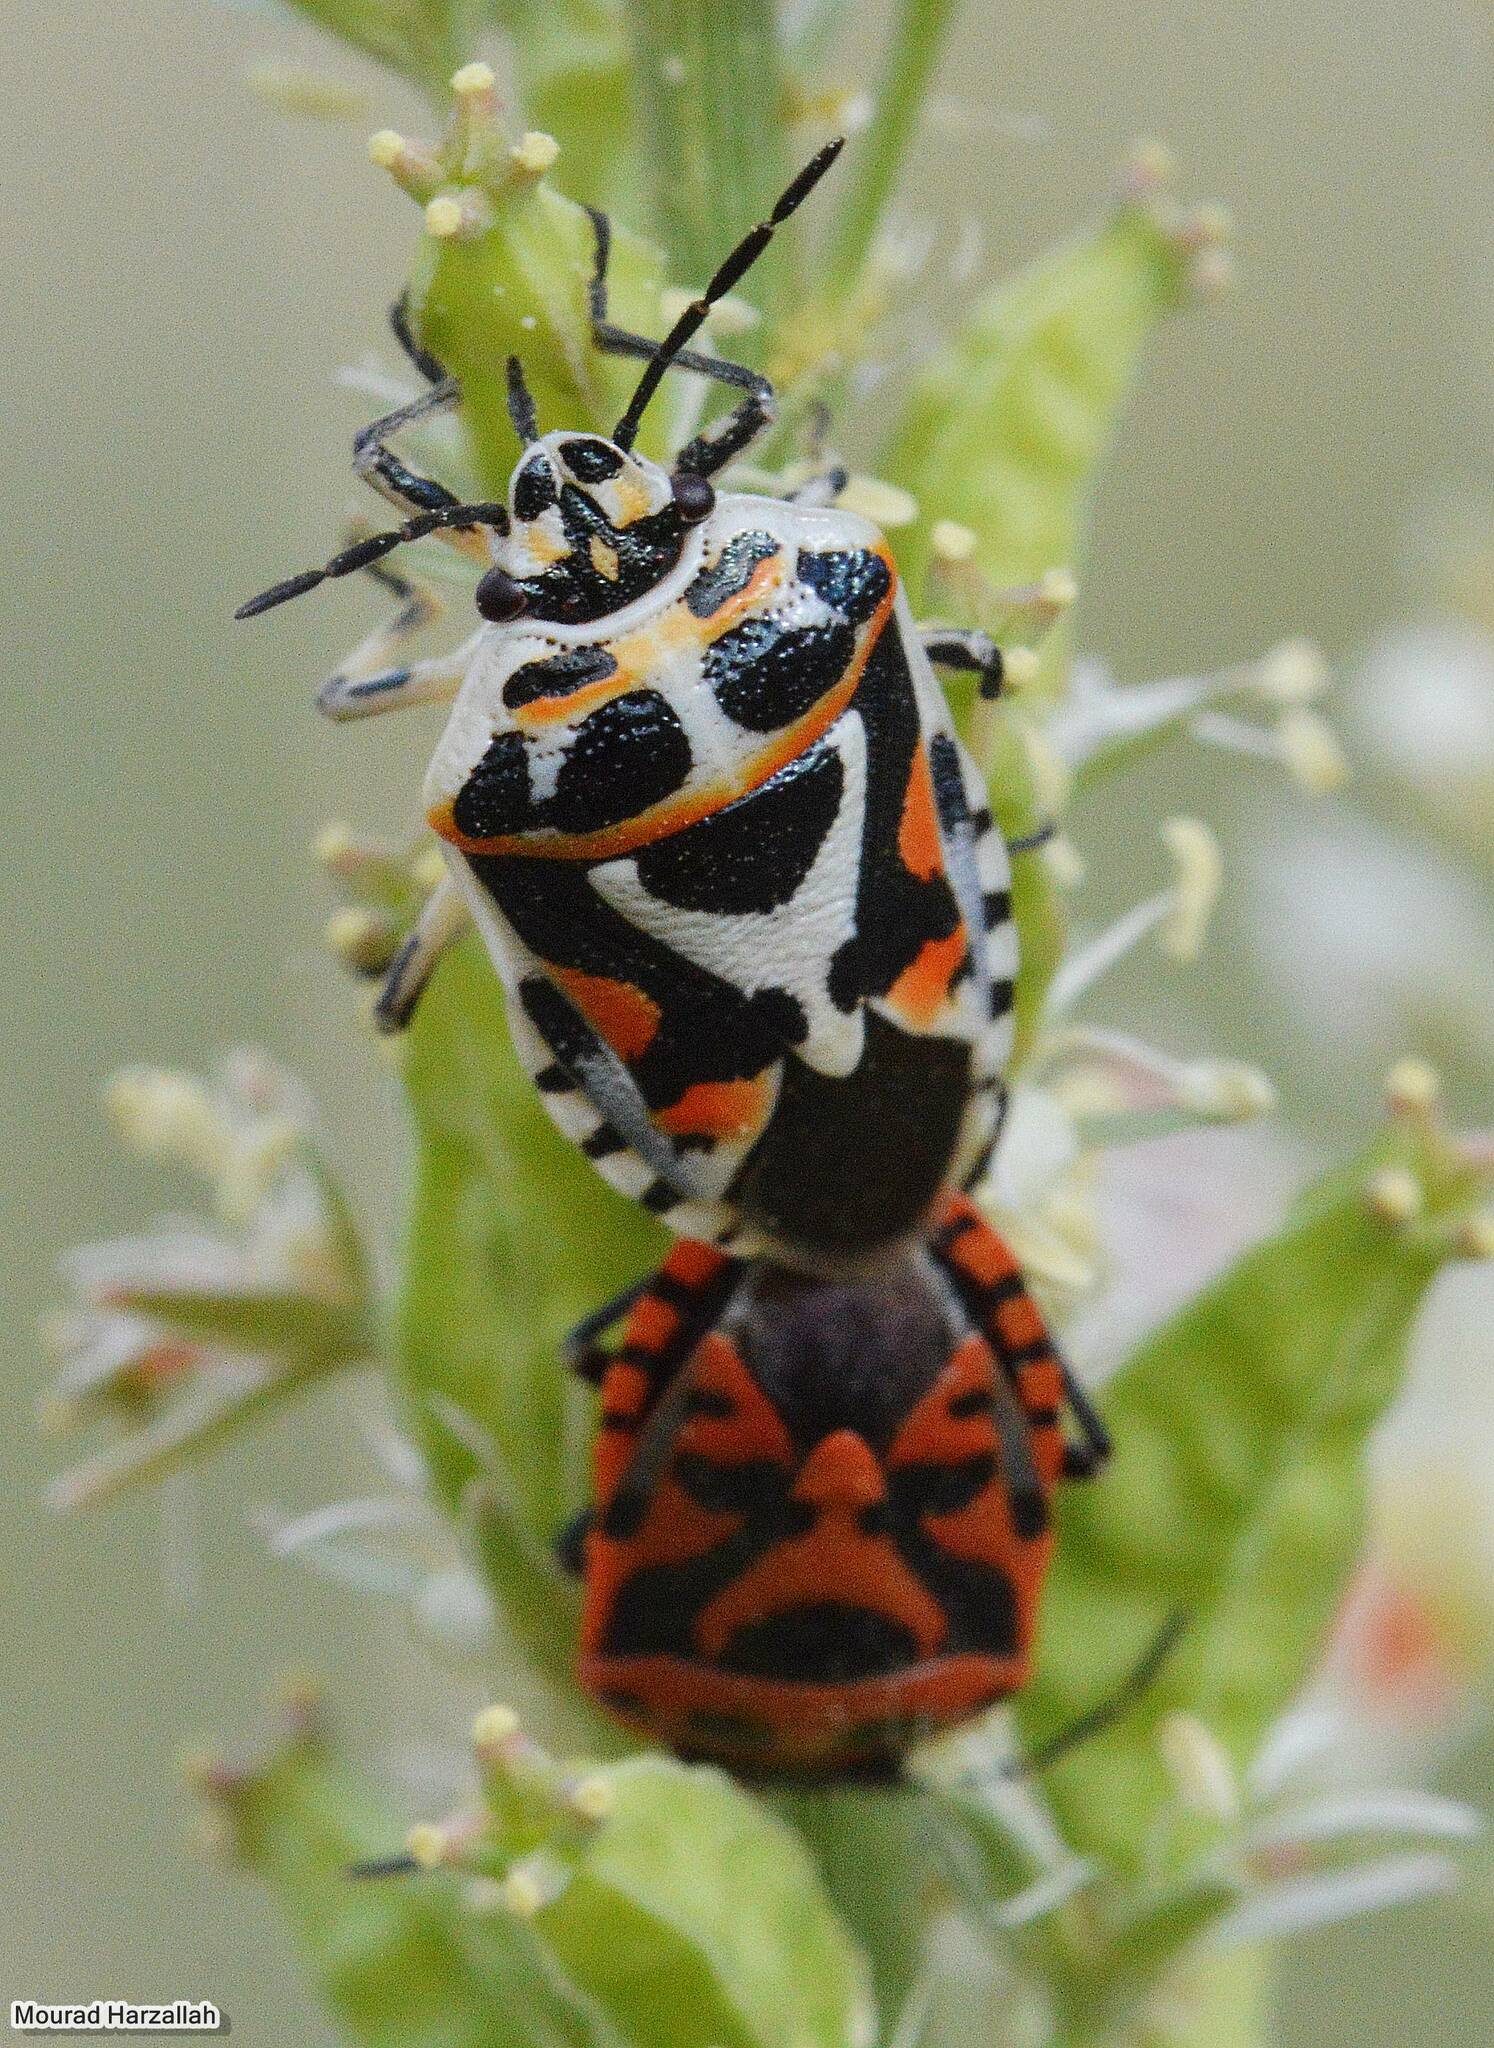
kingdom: Animalia
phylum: Arthropoda
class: Insecta
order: Hemiptera
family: Pentatomidae
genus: Eurydema
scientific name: Eurydema ornata
